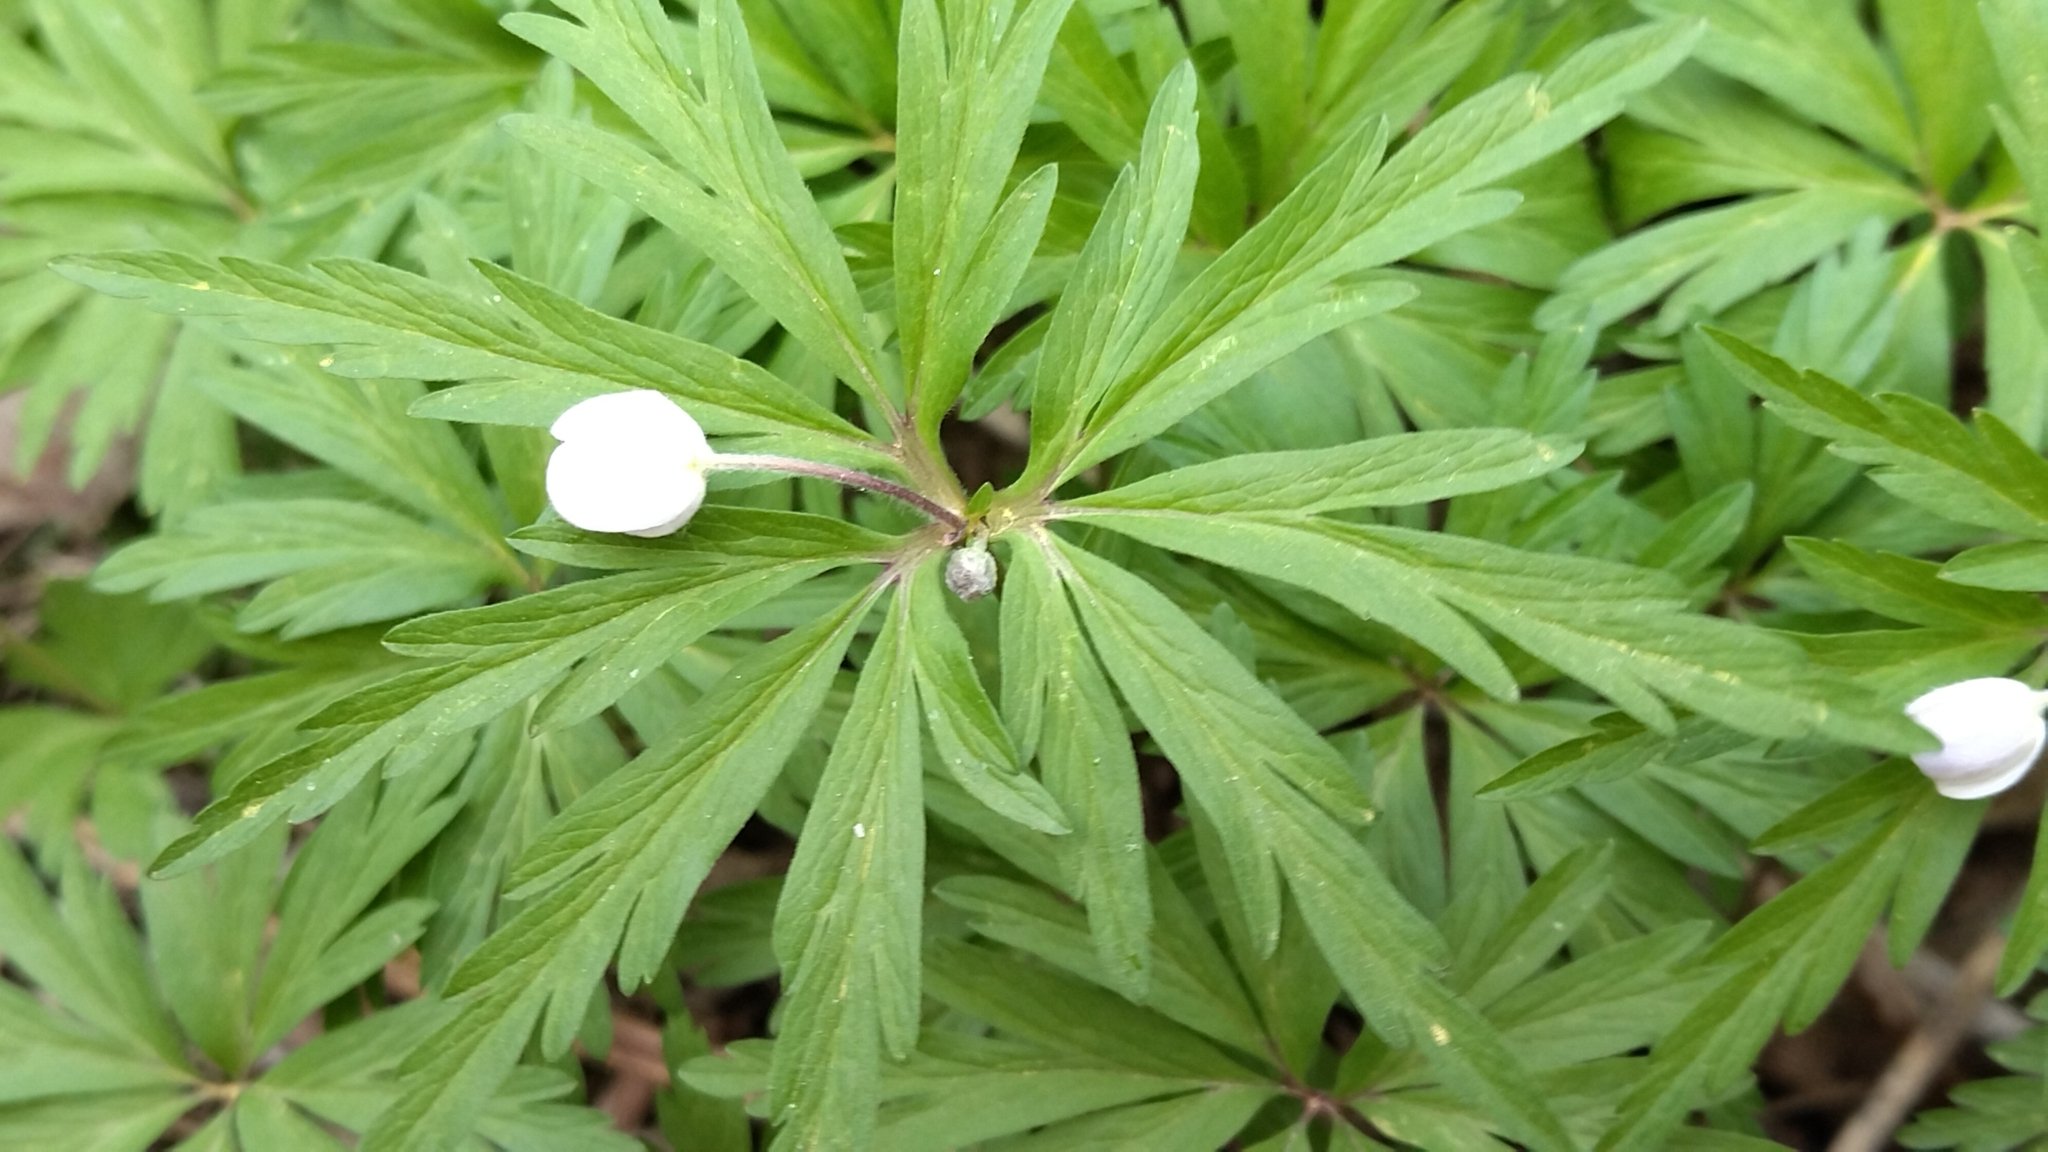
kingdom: Plantae
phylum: Tracheophyta
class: Magnoliopsida
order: Ranunculales
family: Ranunculaceae
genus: Anemone
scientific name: Anemone altaica
